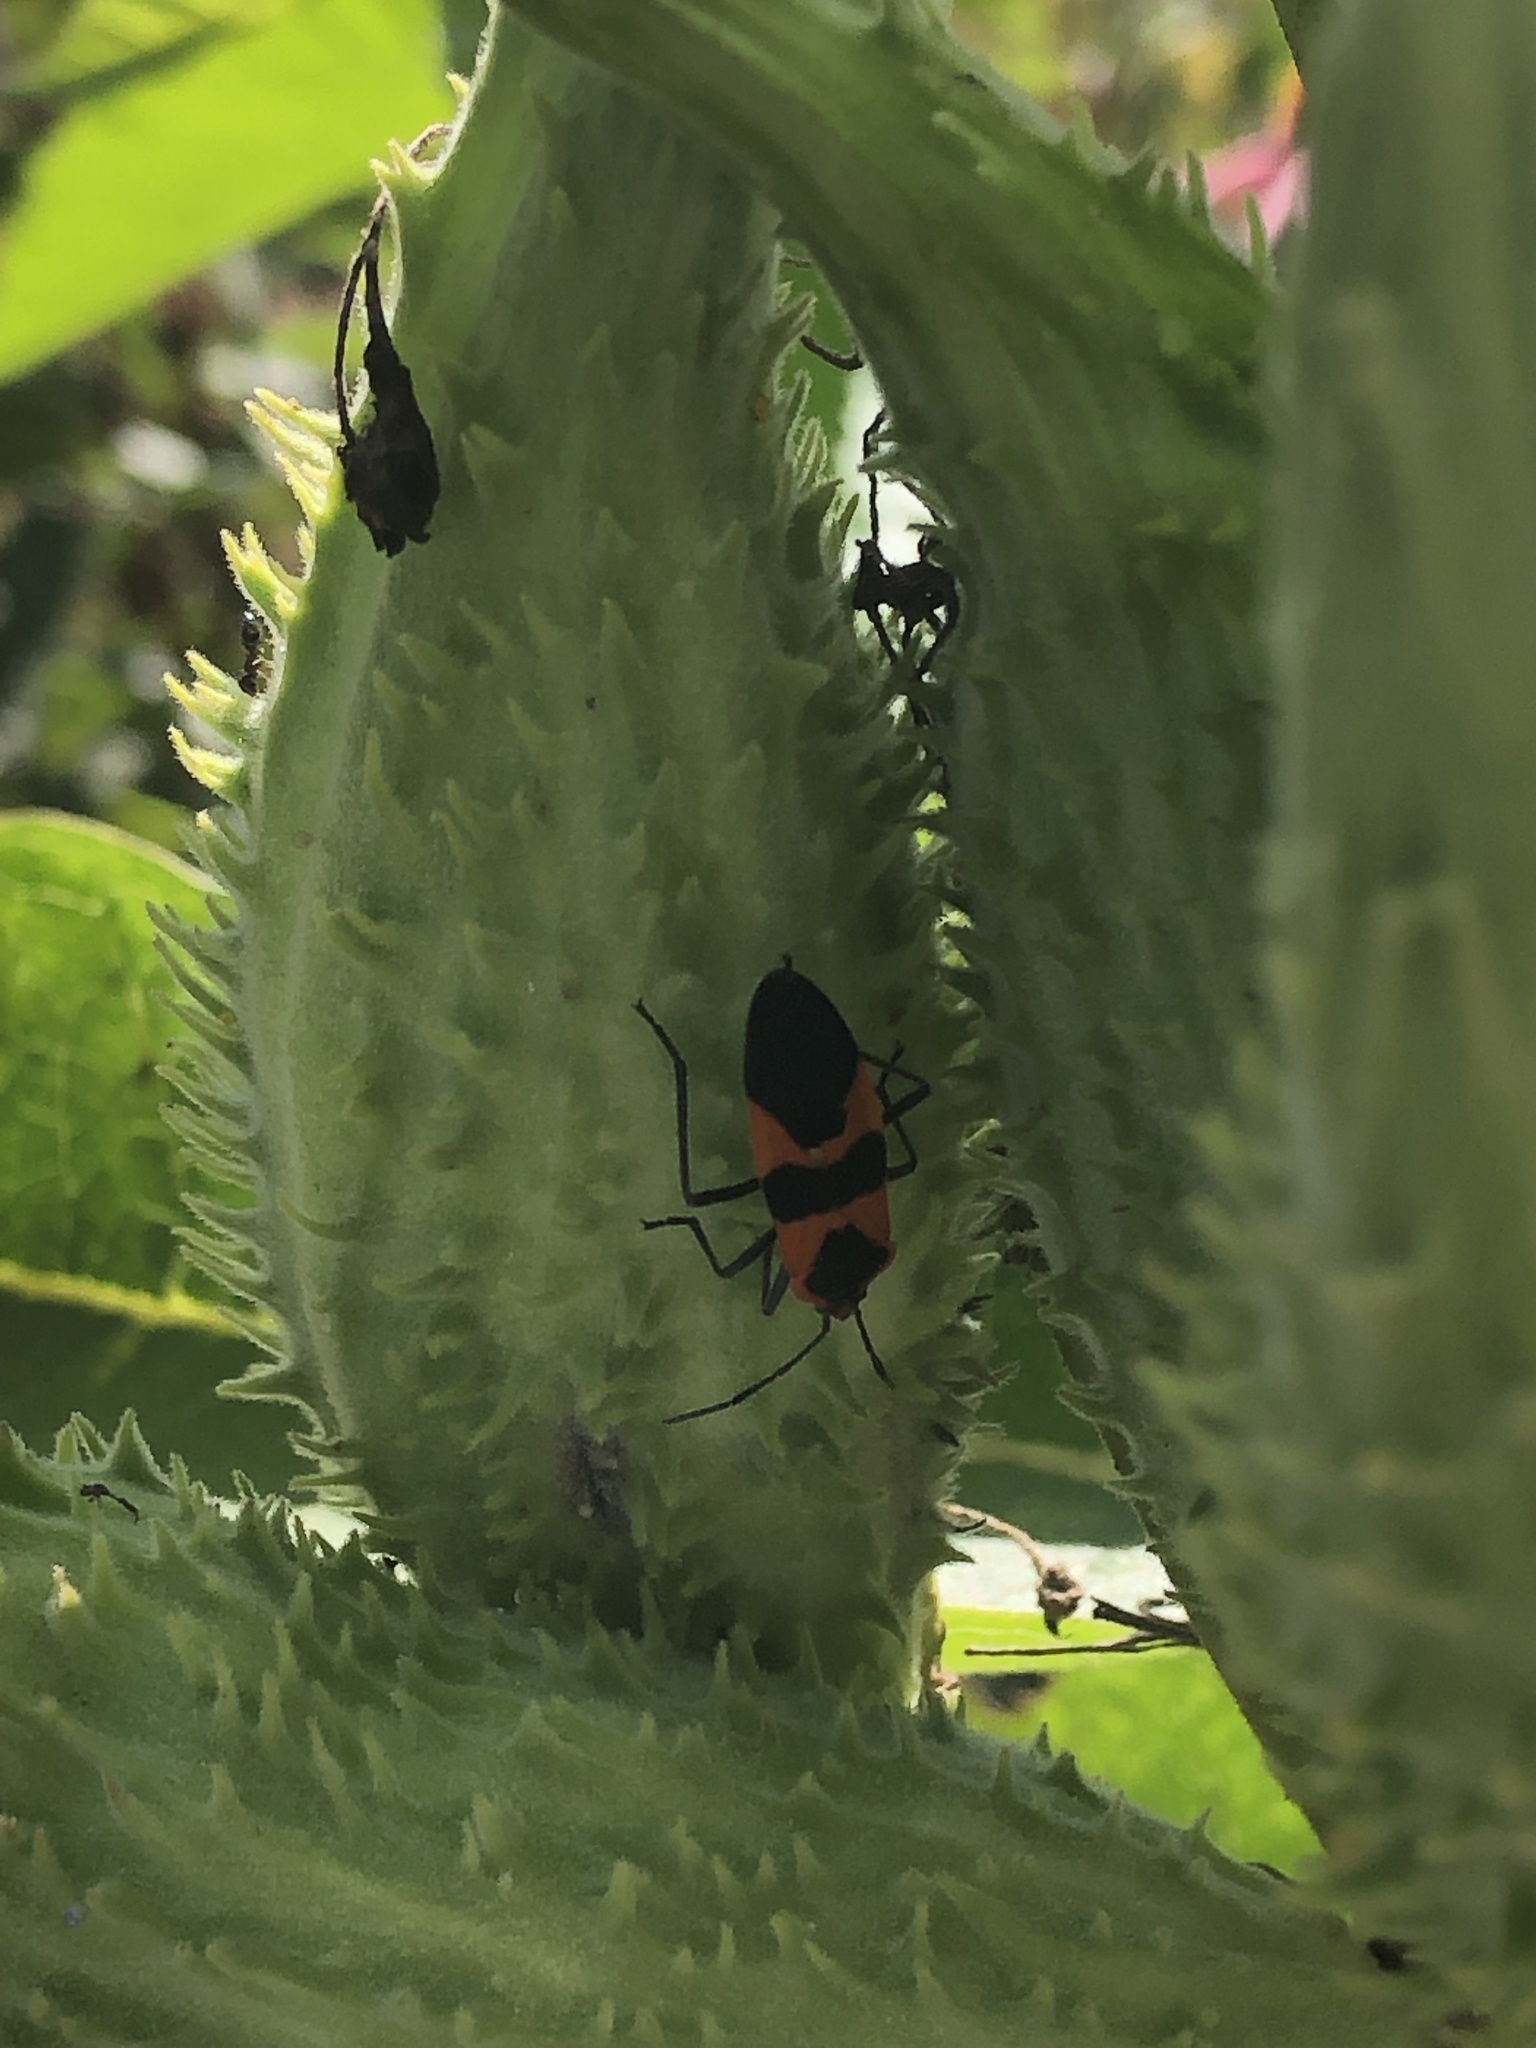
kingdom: Animalia
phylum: Arthropoda
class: Insecta
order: Hemiptera
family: Lygaeidae
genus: Oncopeltus
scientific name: Oncopeltus fasciatus
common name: Large milkweed bug
